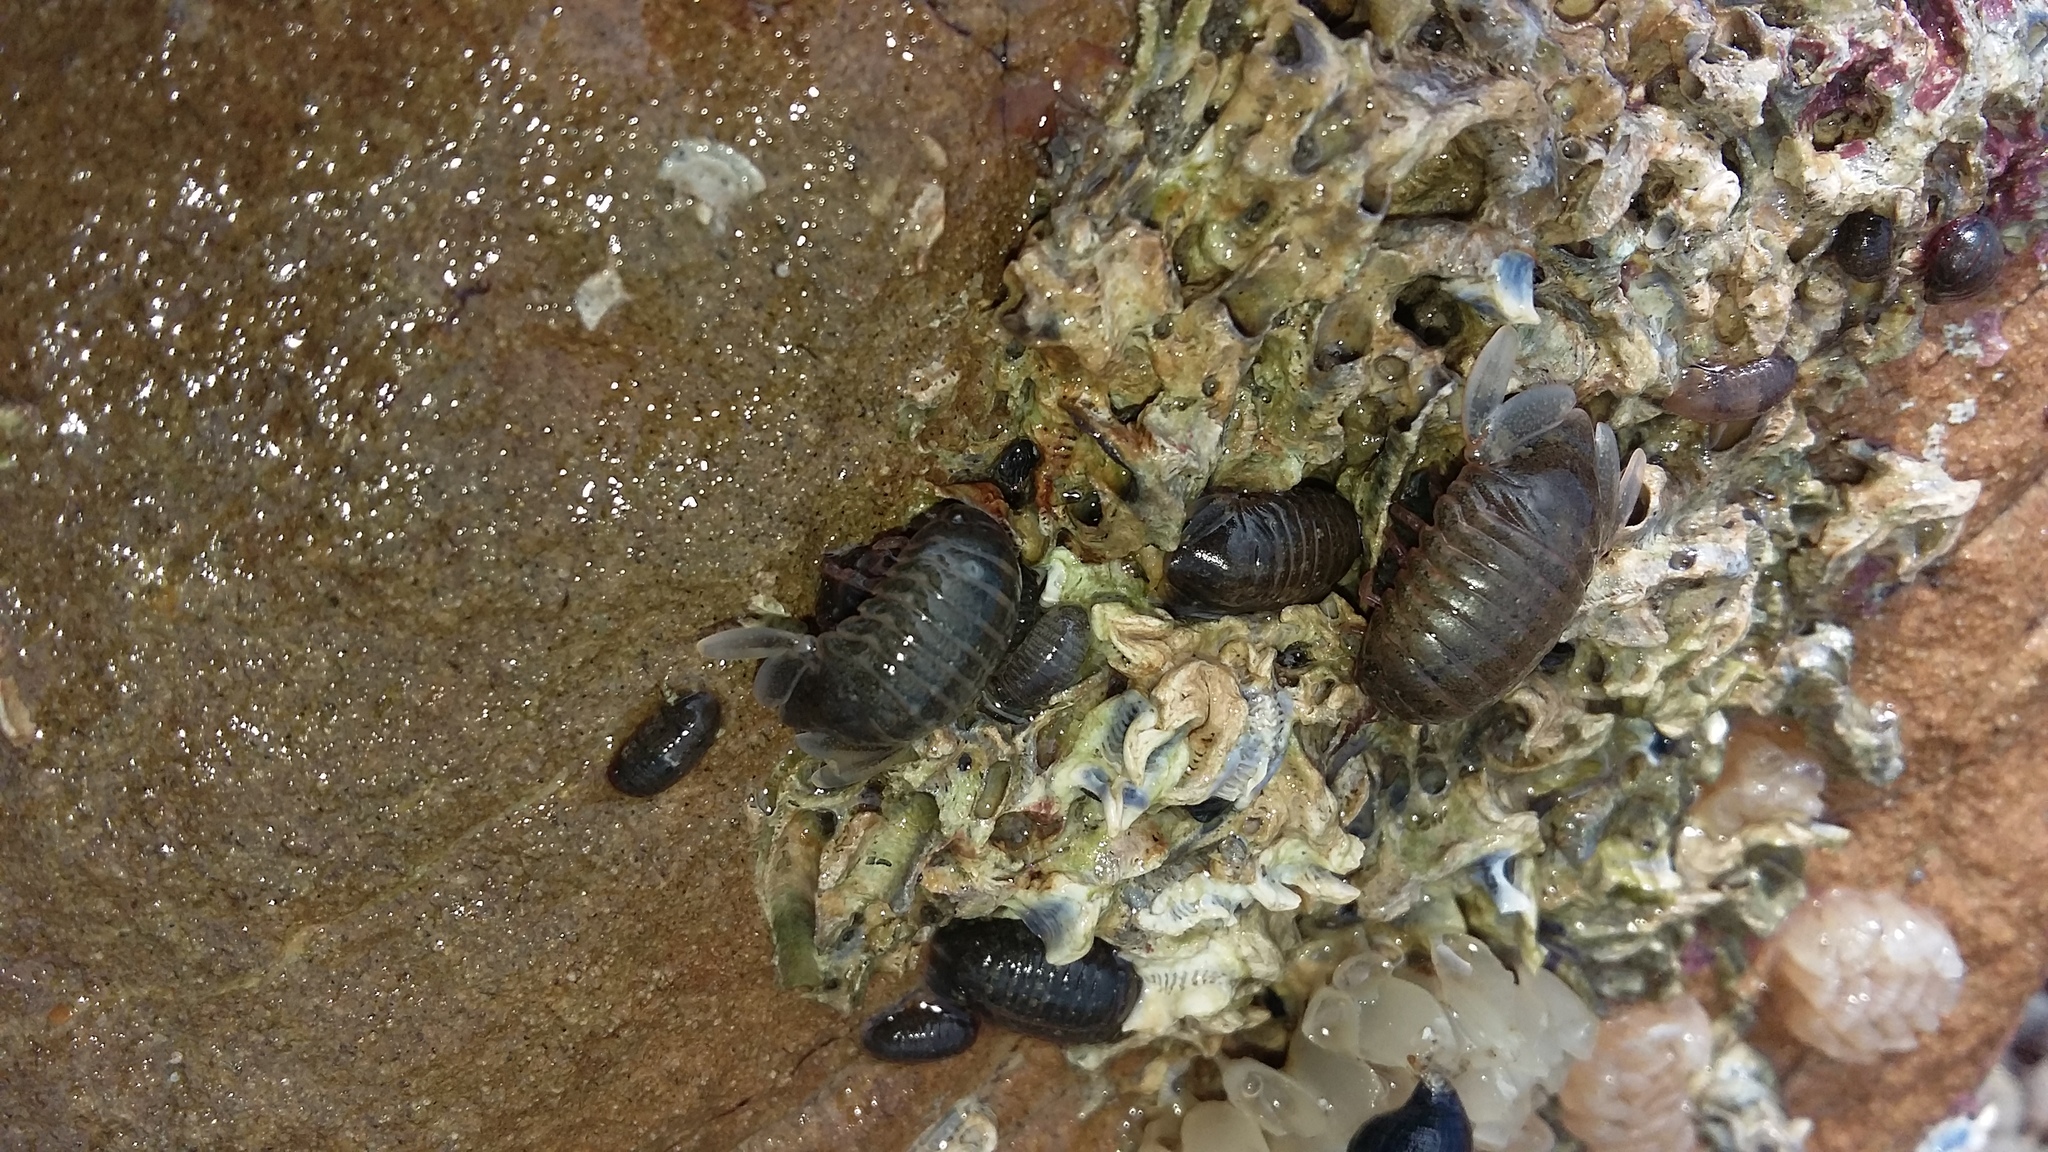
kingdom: Animalia
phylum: Arthropoda
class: Malacostraca
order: Isopoda
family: Sphaeromatidae
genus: Exosphaeroma
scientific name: Exosphaeroma gigas
